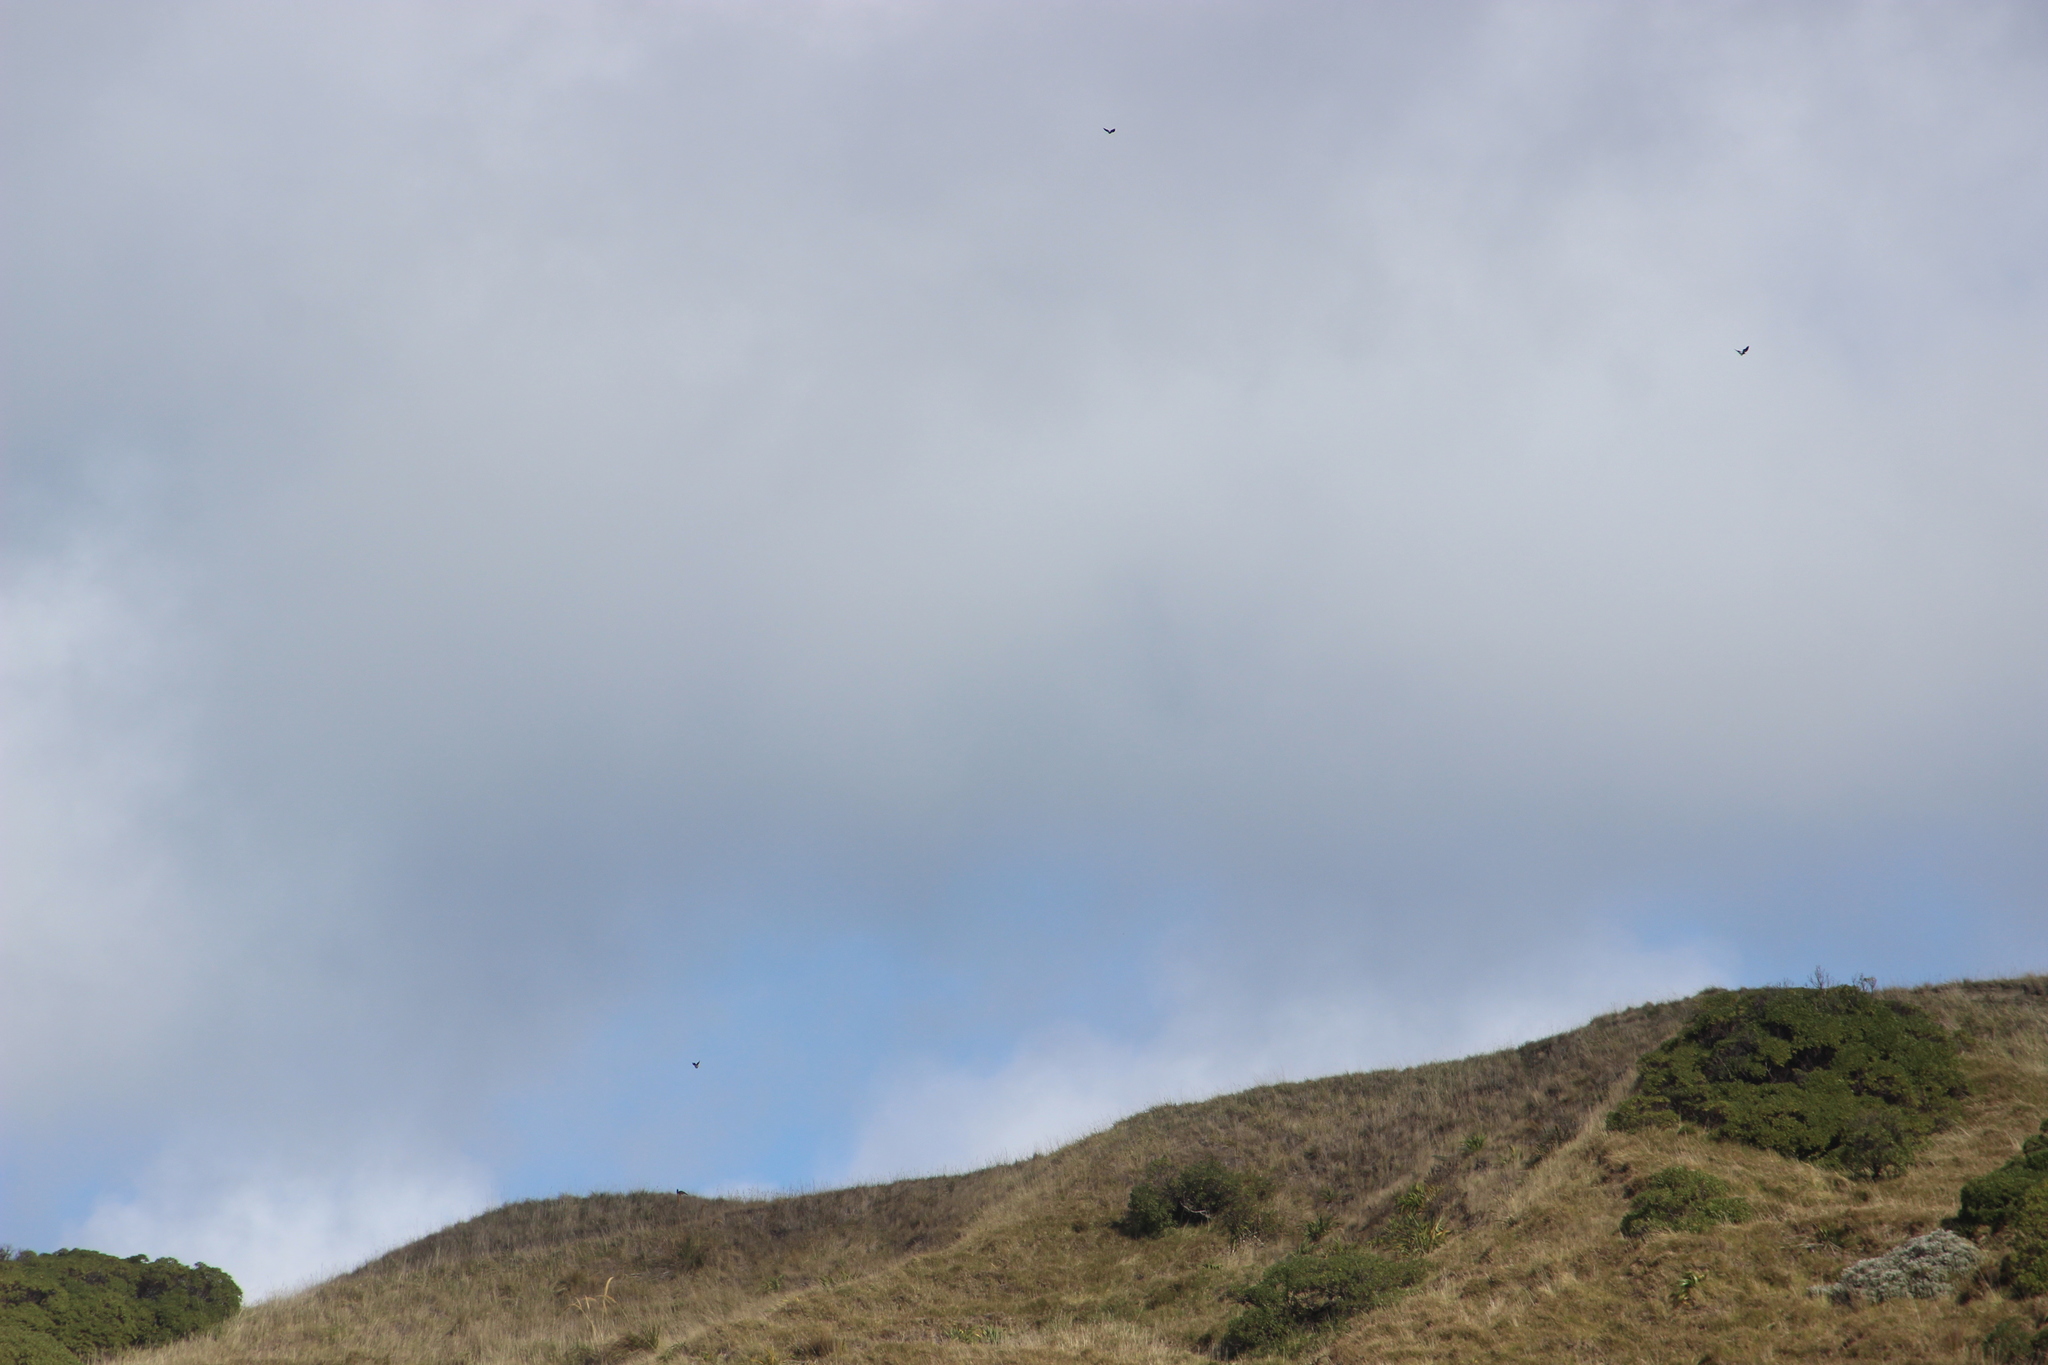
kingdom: Animalia
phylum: Chordata
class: Aves
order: Passeriformes
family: Cracticidae
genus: Gymnorhina
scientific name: Gymnorhina tibicen
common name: Australian magpie
